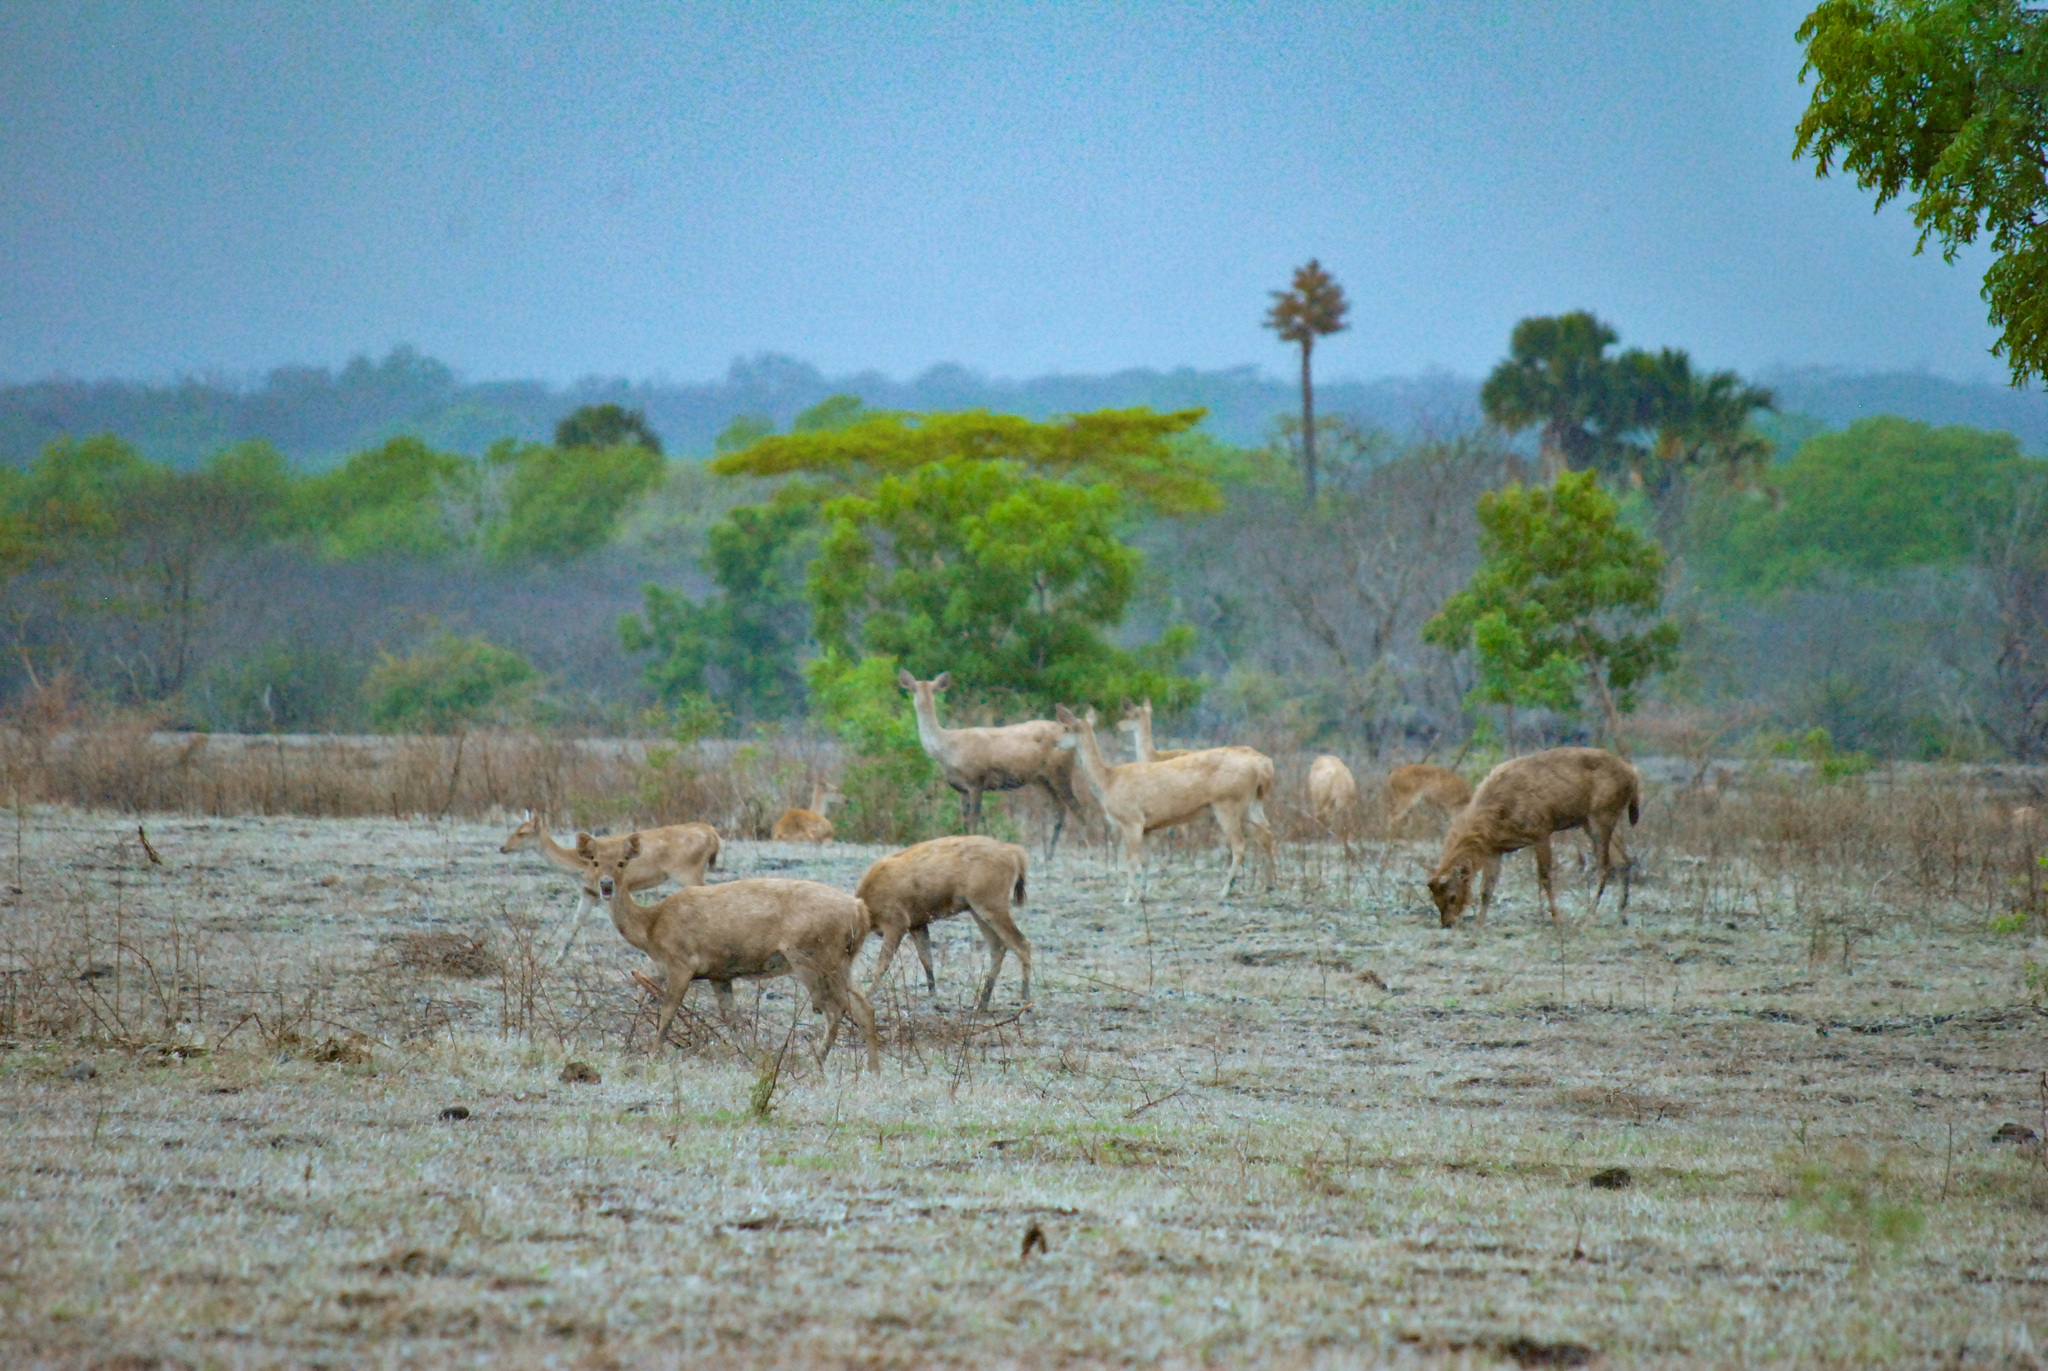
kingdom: Animalia
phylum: Chordata
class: Mammalia
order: Artiodactyla
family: Cervidae
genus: Rusa
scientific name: Rusa timorensis
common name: Javan rusa
